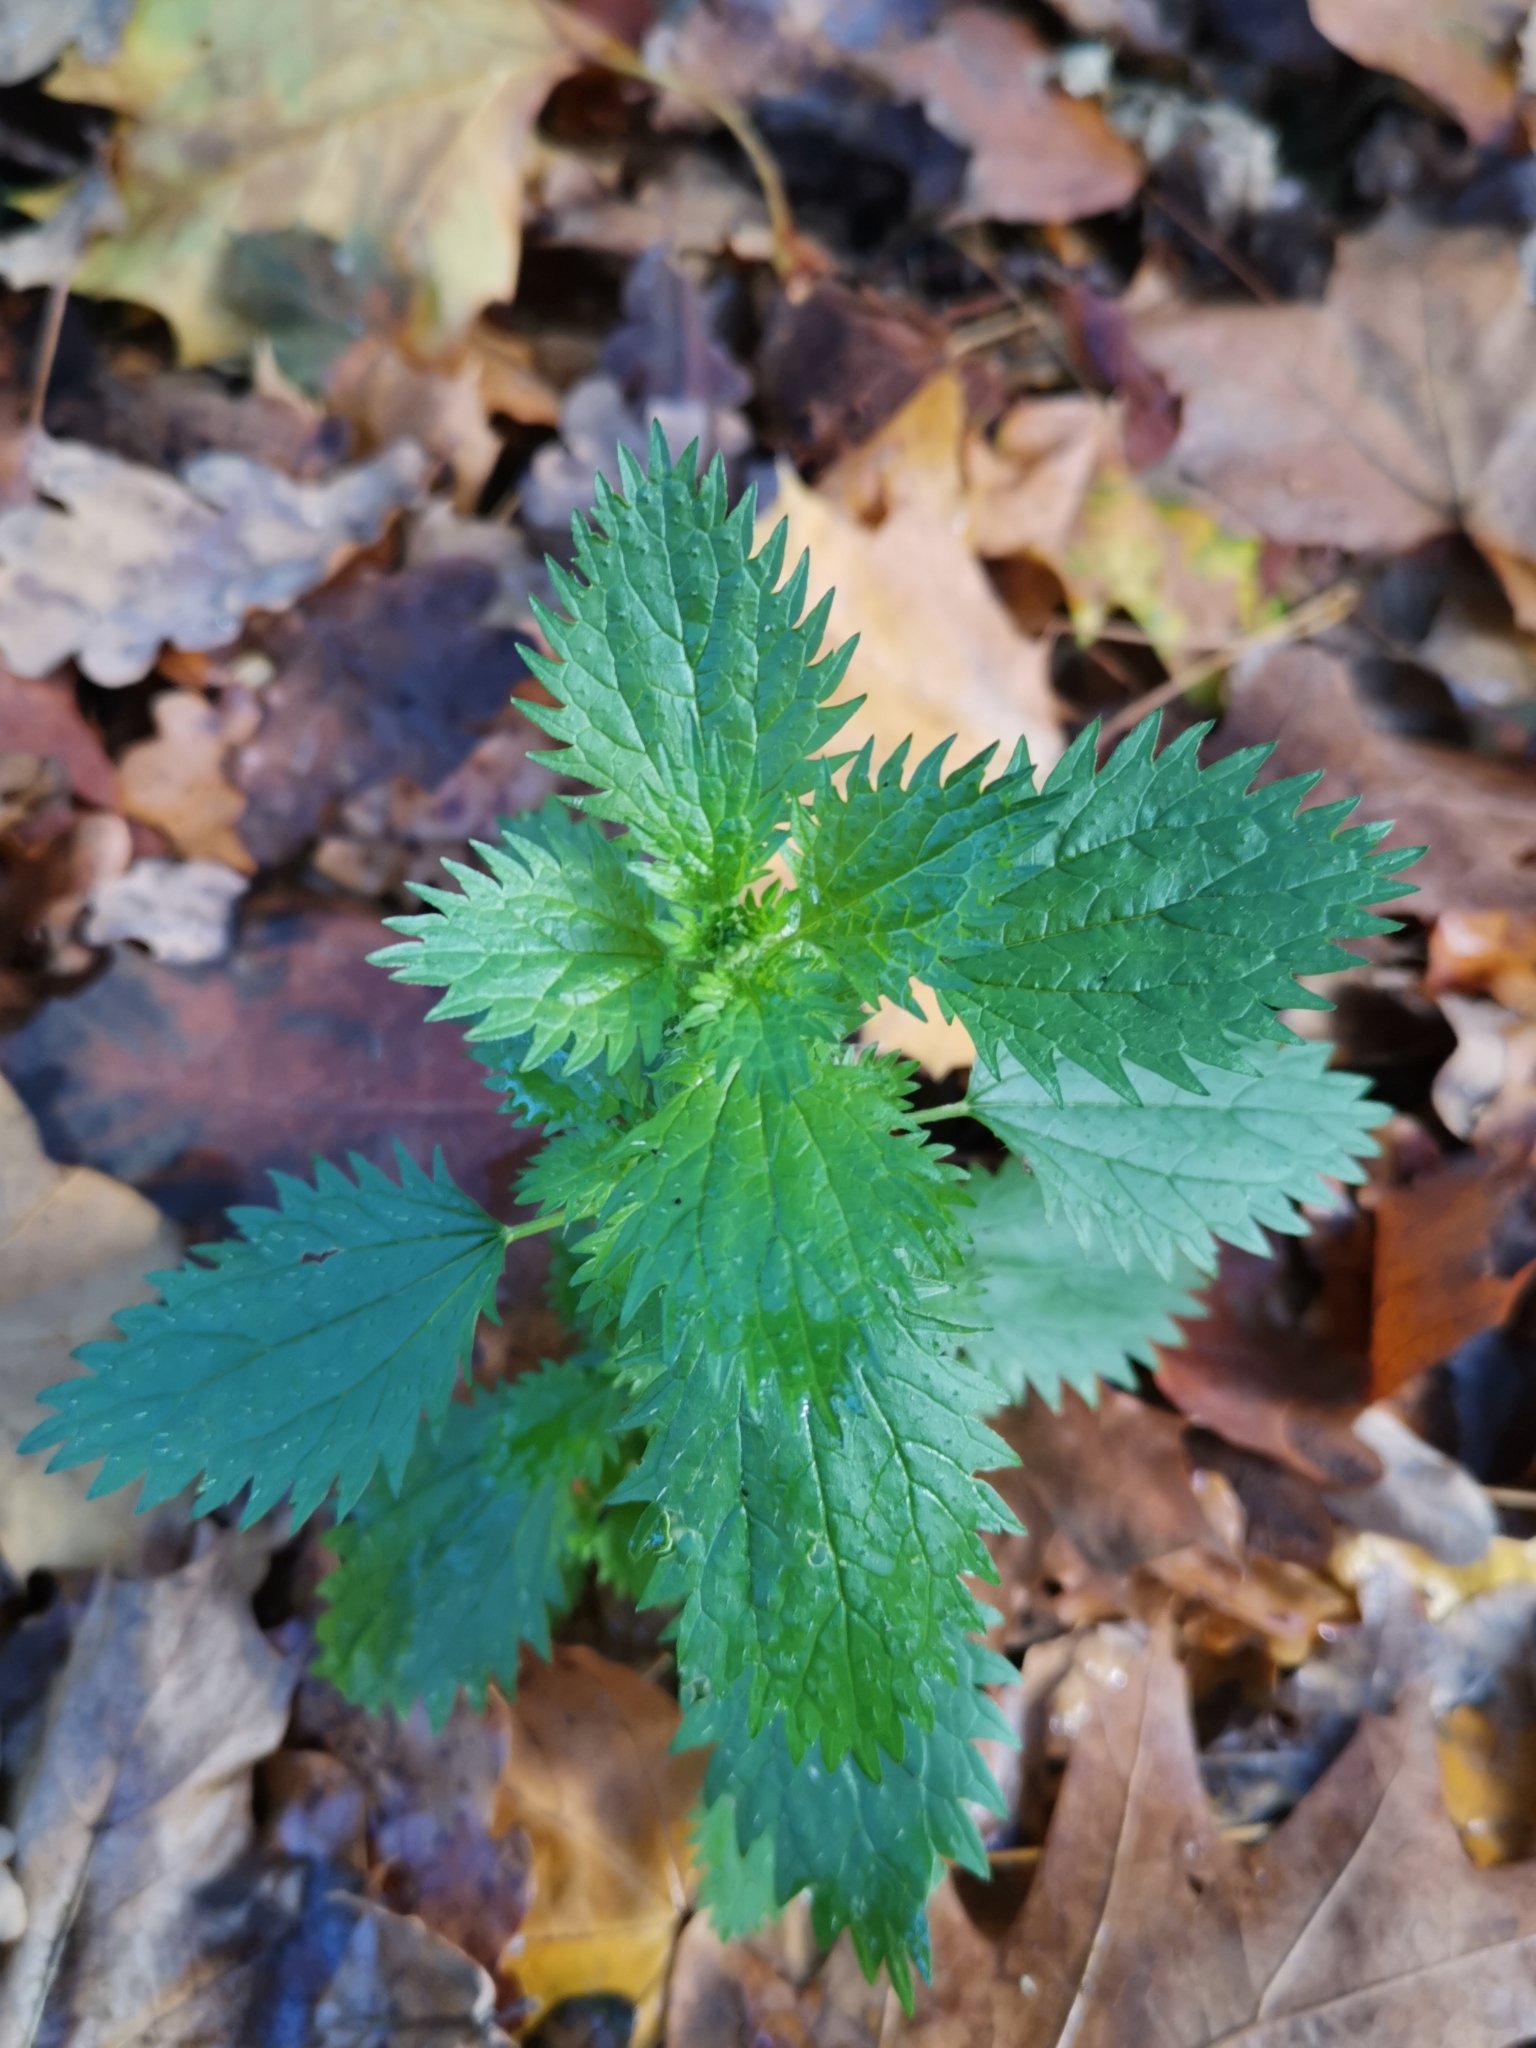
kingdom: Plantae
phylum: Tracheophyta
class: Magnoliopsida
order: Rosales
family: Urticaceae
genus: Urtica
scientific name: Urtica urens
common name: Dwarf nettle
